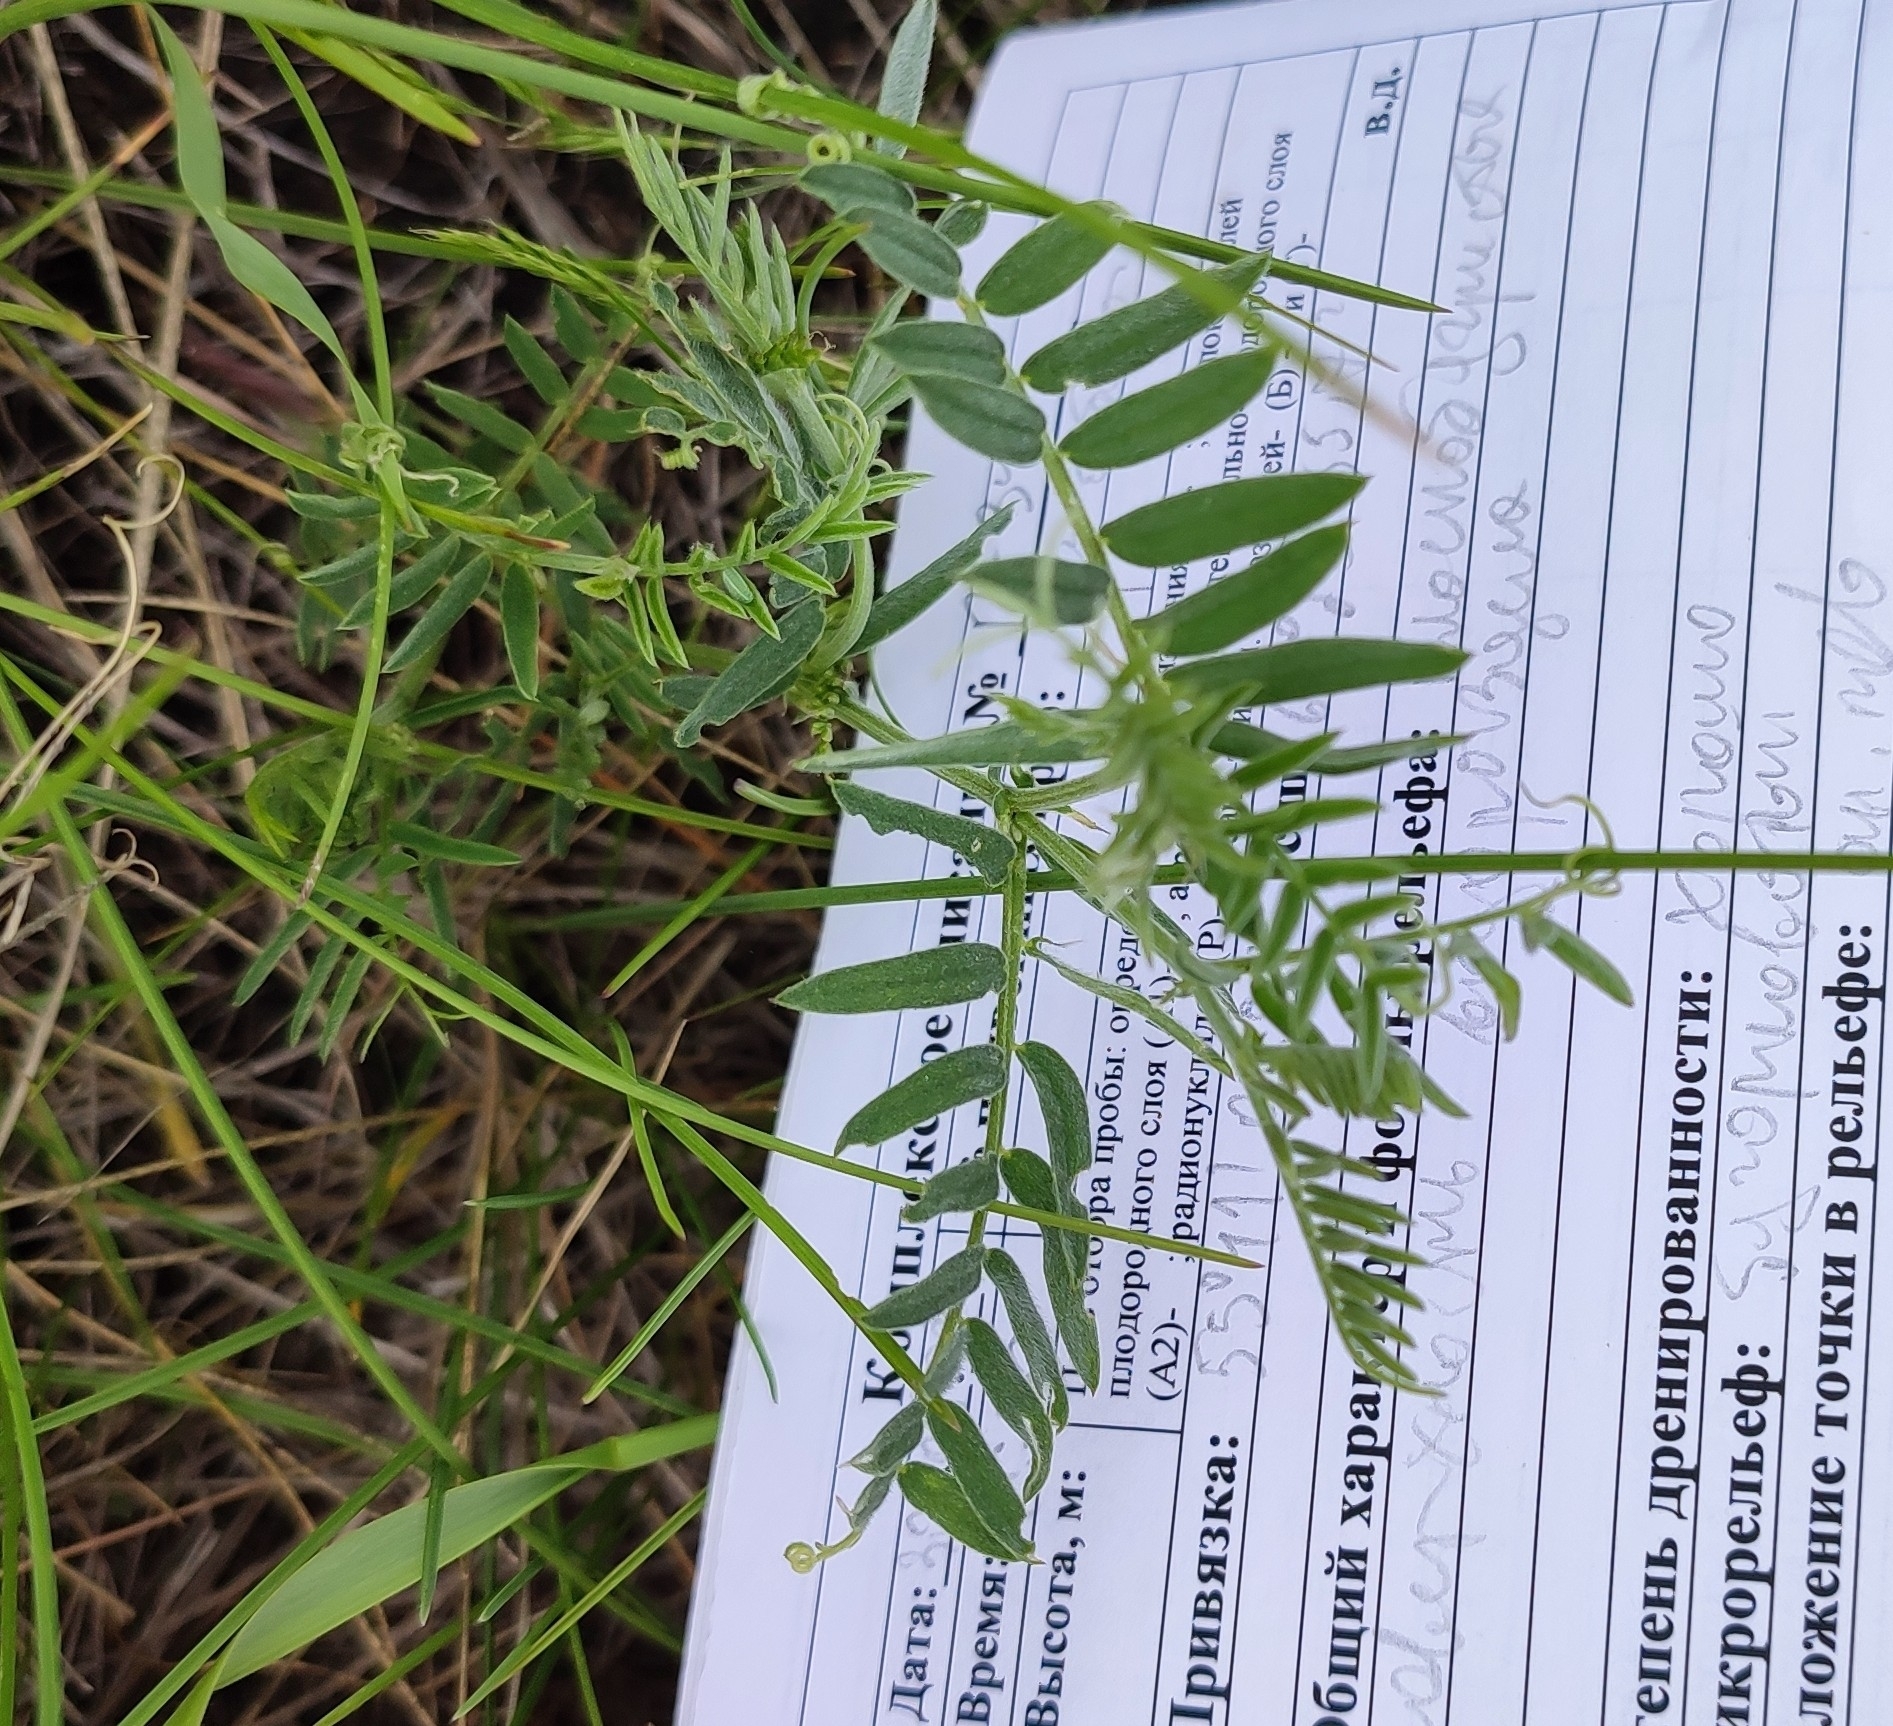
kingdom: Plantae
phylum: Tracheophyta
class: Magnoliopsida
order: Fabales
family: Fabaceae
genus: Vicia
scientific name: Vicia cracca
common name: Bird vetch
